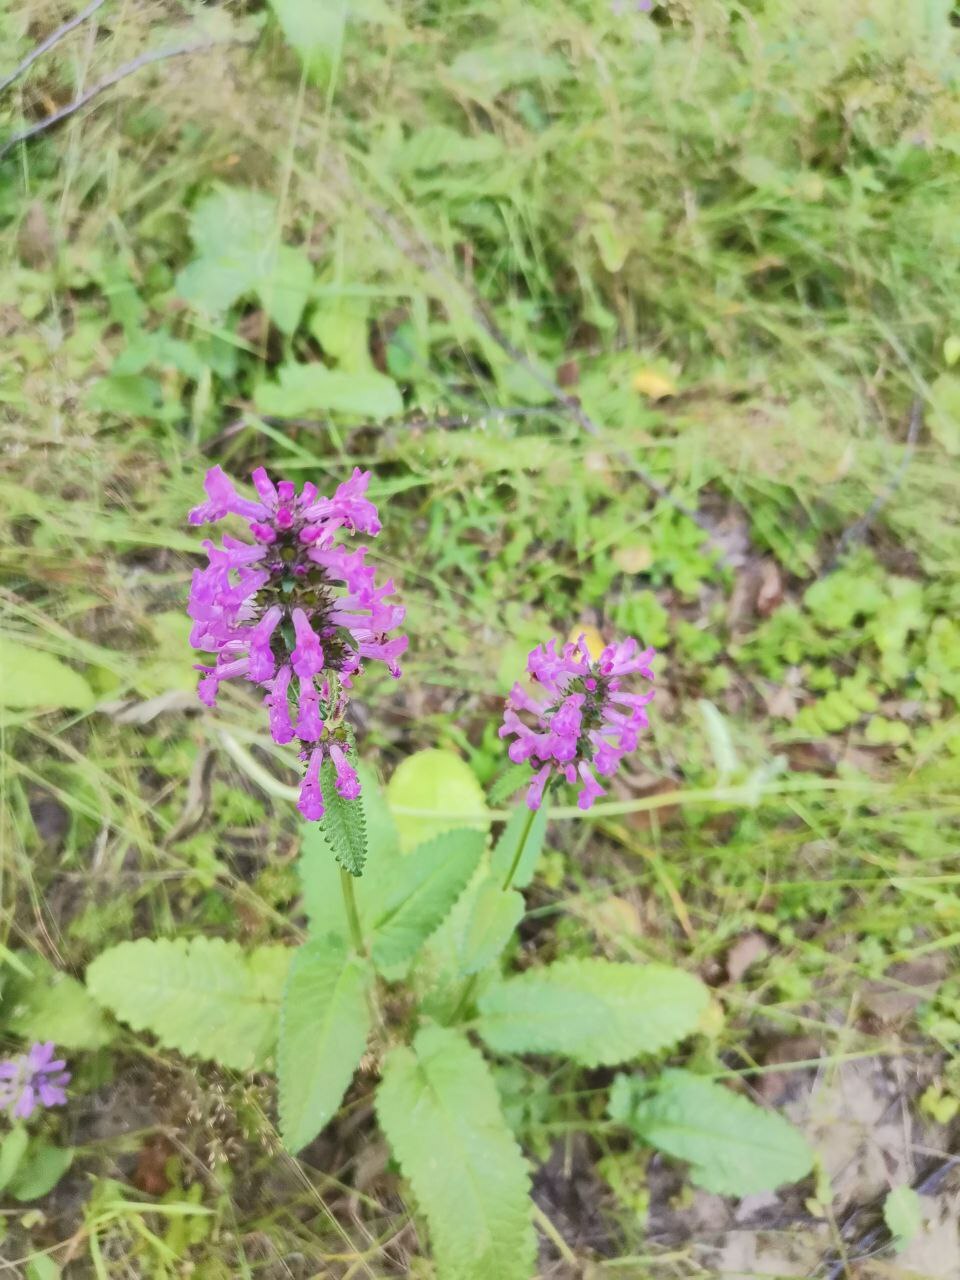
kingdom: Plantae
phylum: Tracheophyta
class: Magnoliopsida
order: Lamiales
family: Lamiaceae
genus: Betonica
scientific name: Betonica officinalis
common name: Bishop's-wort
